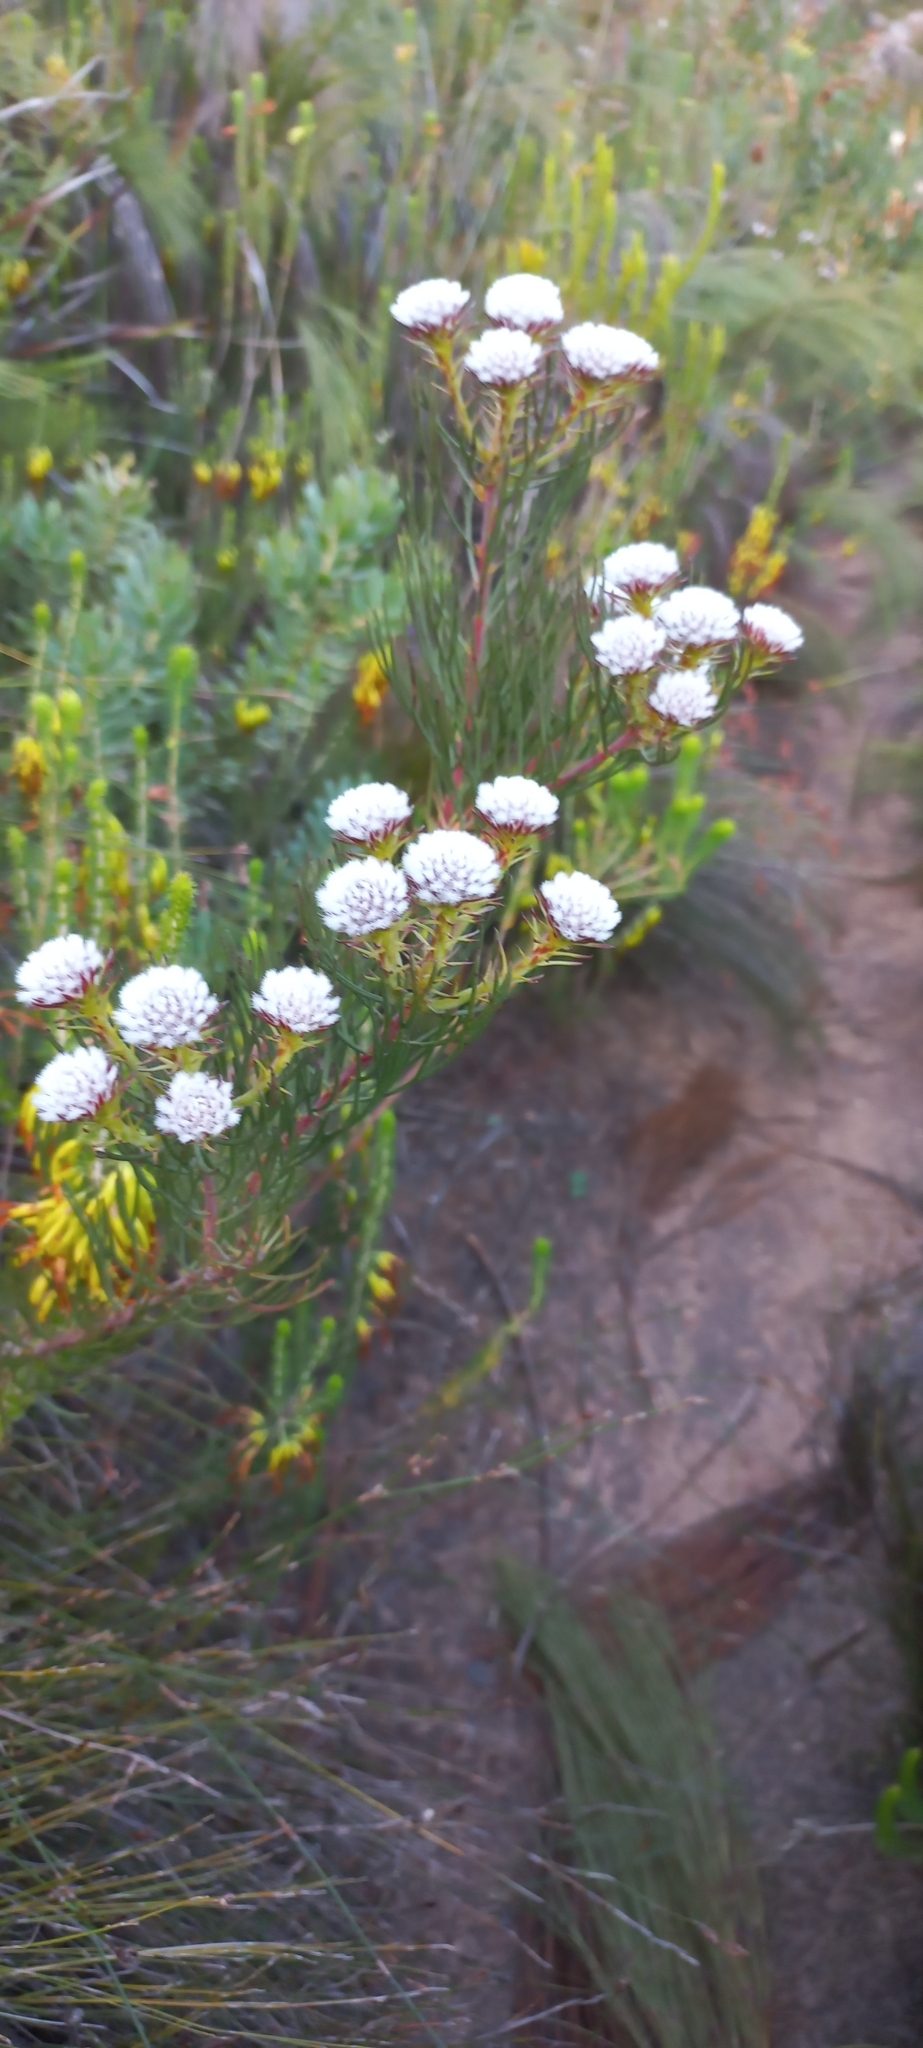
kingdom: Plantae
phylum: Tracheophyta
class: Magnoliopsida
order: Proteales
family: Proteaceae
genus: Serruria
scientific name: Serruria phylicoides
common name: Bearded spiderhead
